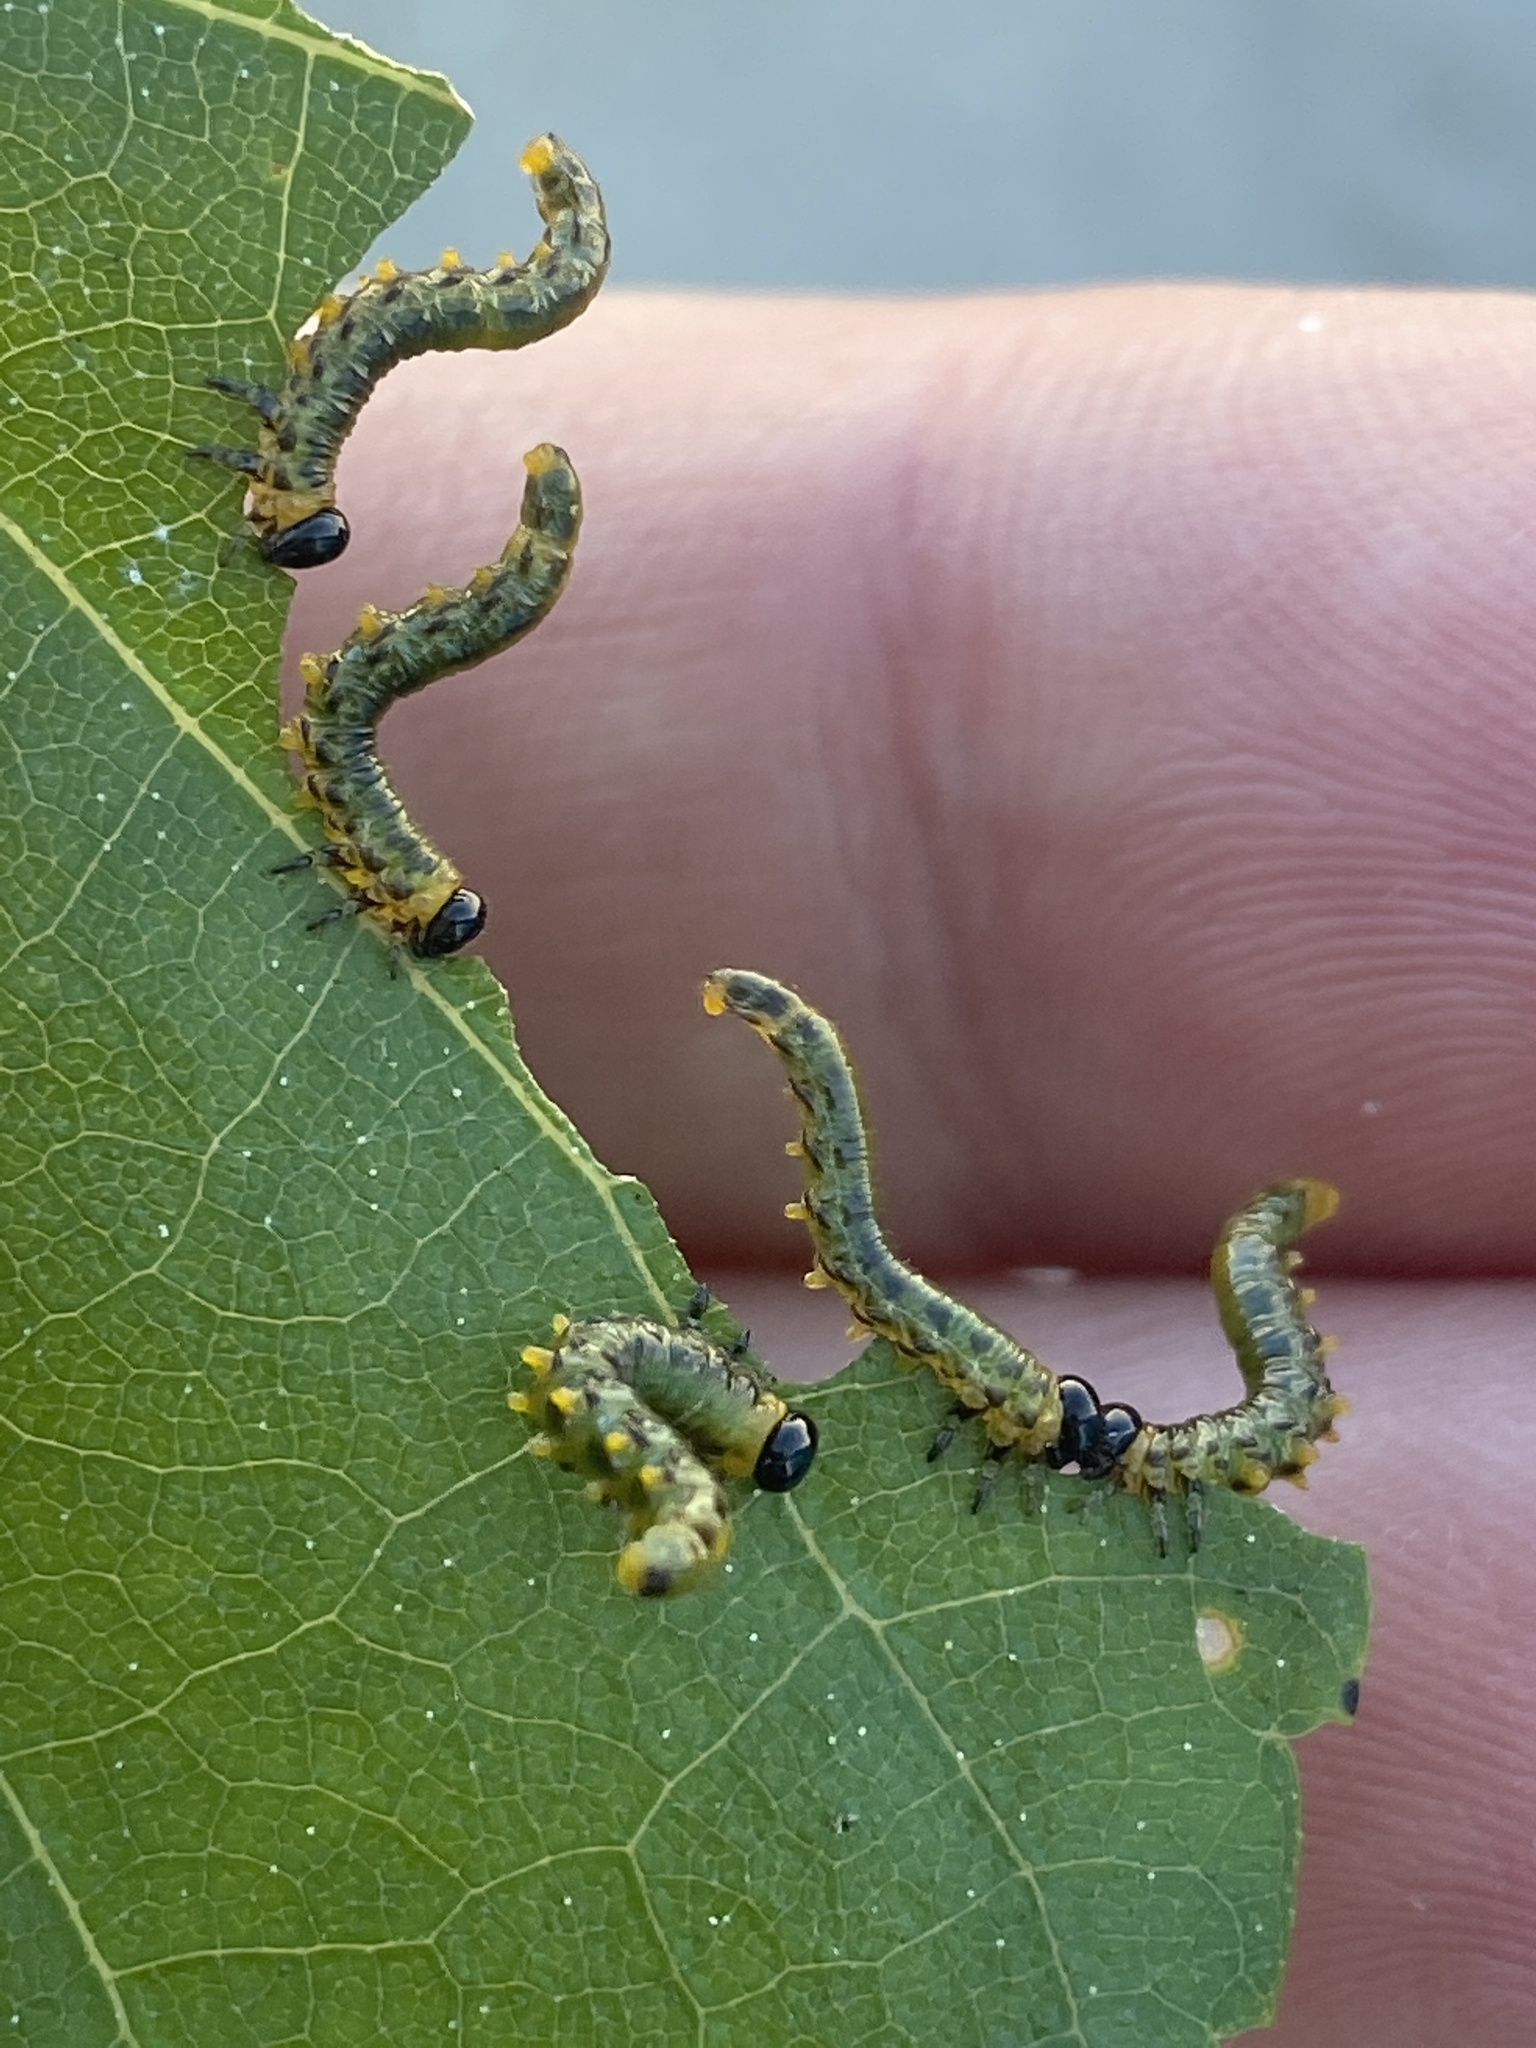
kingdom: Animalia
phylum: Arthropoda
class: Insecta
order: Hymenoptera
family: Tenthredinidae
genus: Craesus
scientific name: Craesus septentrionalis
